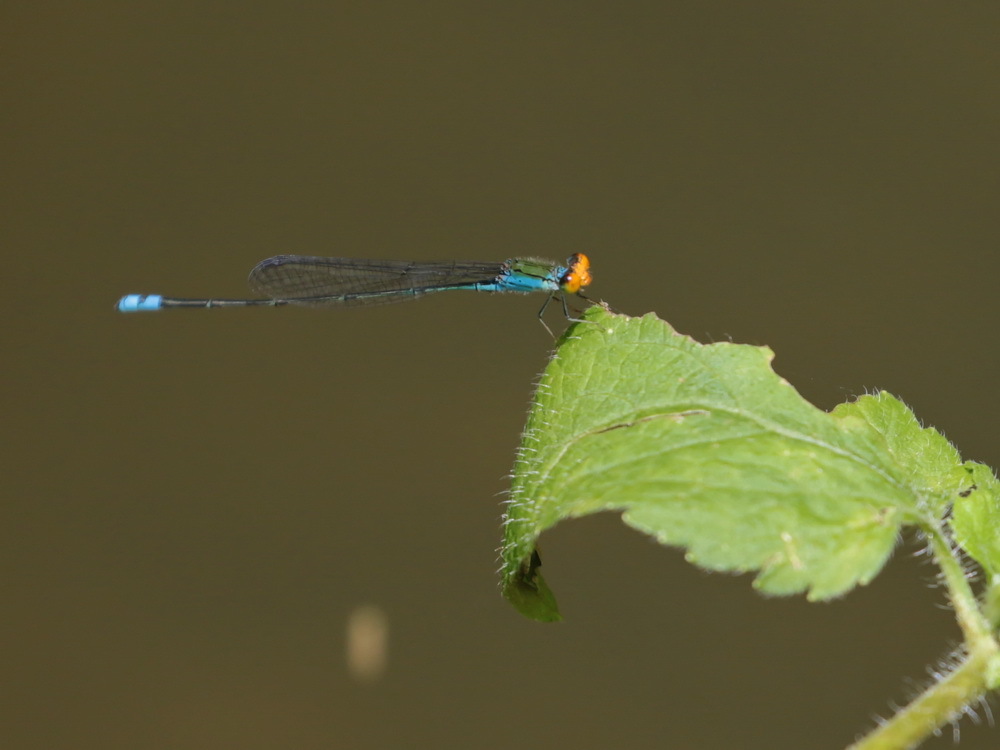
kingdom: Animalia
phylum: Arthropoda
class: Insecta
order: Odonata
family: Coenagrionidae
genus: Pseudagrion
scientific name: Pseudagrion rubriceps
